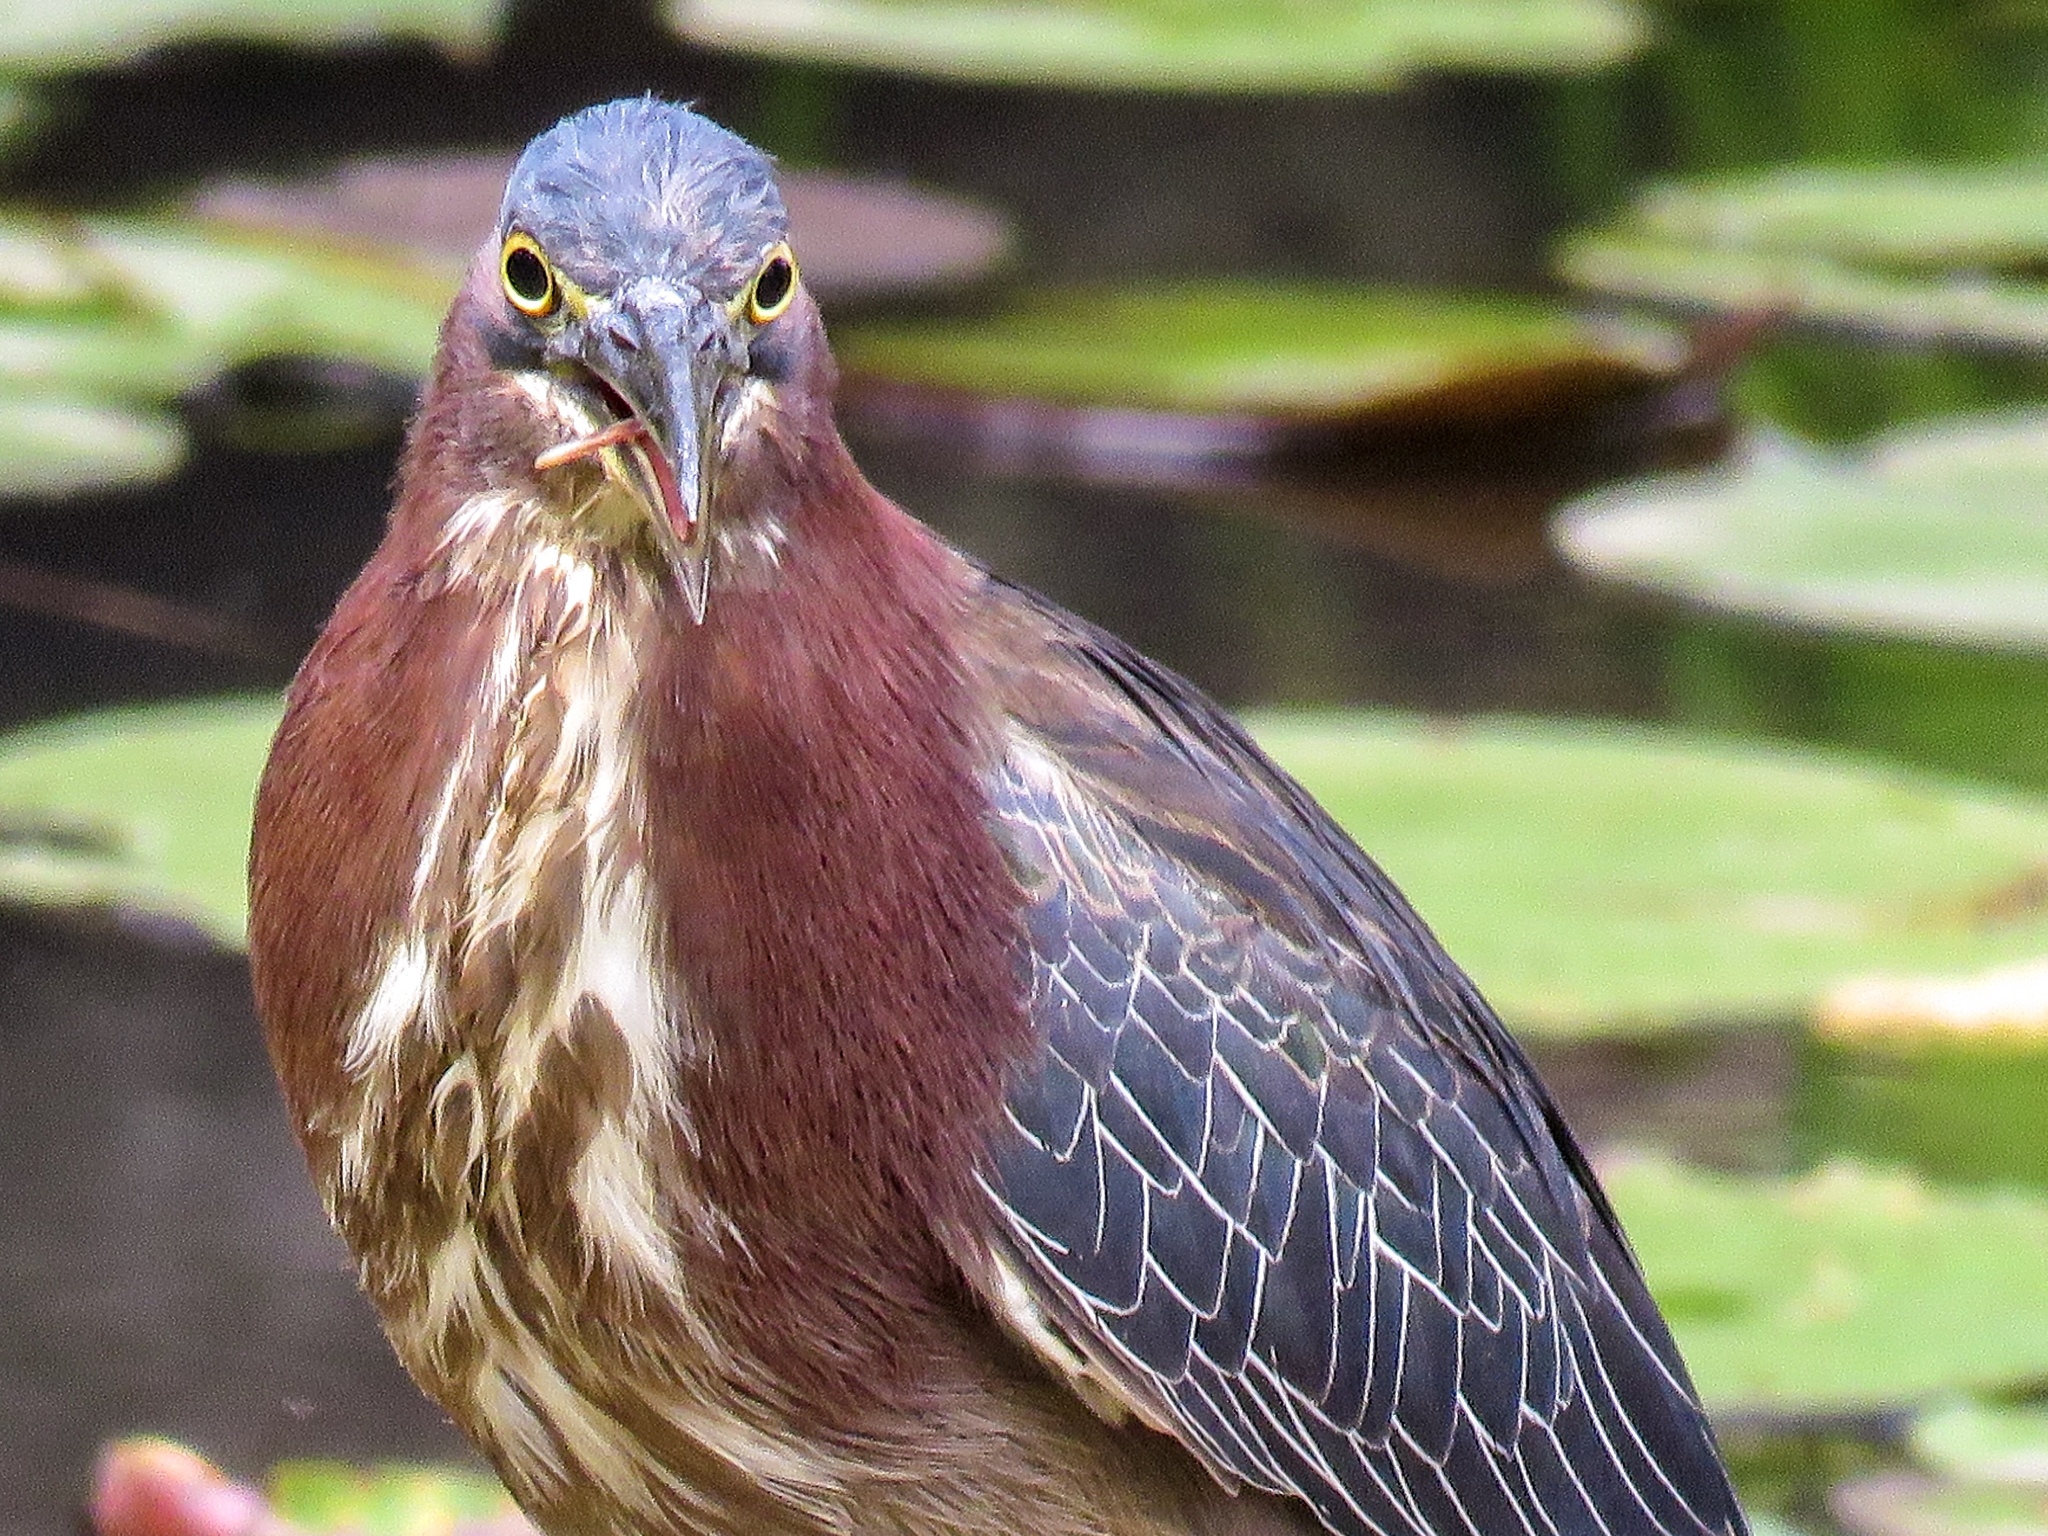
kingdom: Animalia
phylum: Chordata
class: Aves
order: Pelecaniformes
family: Ardeidae
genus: Butorides
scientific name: Butorides virescens
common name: Green heron
